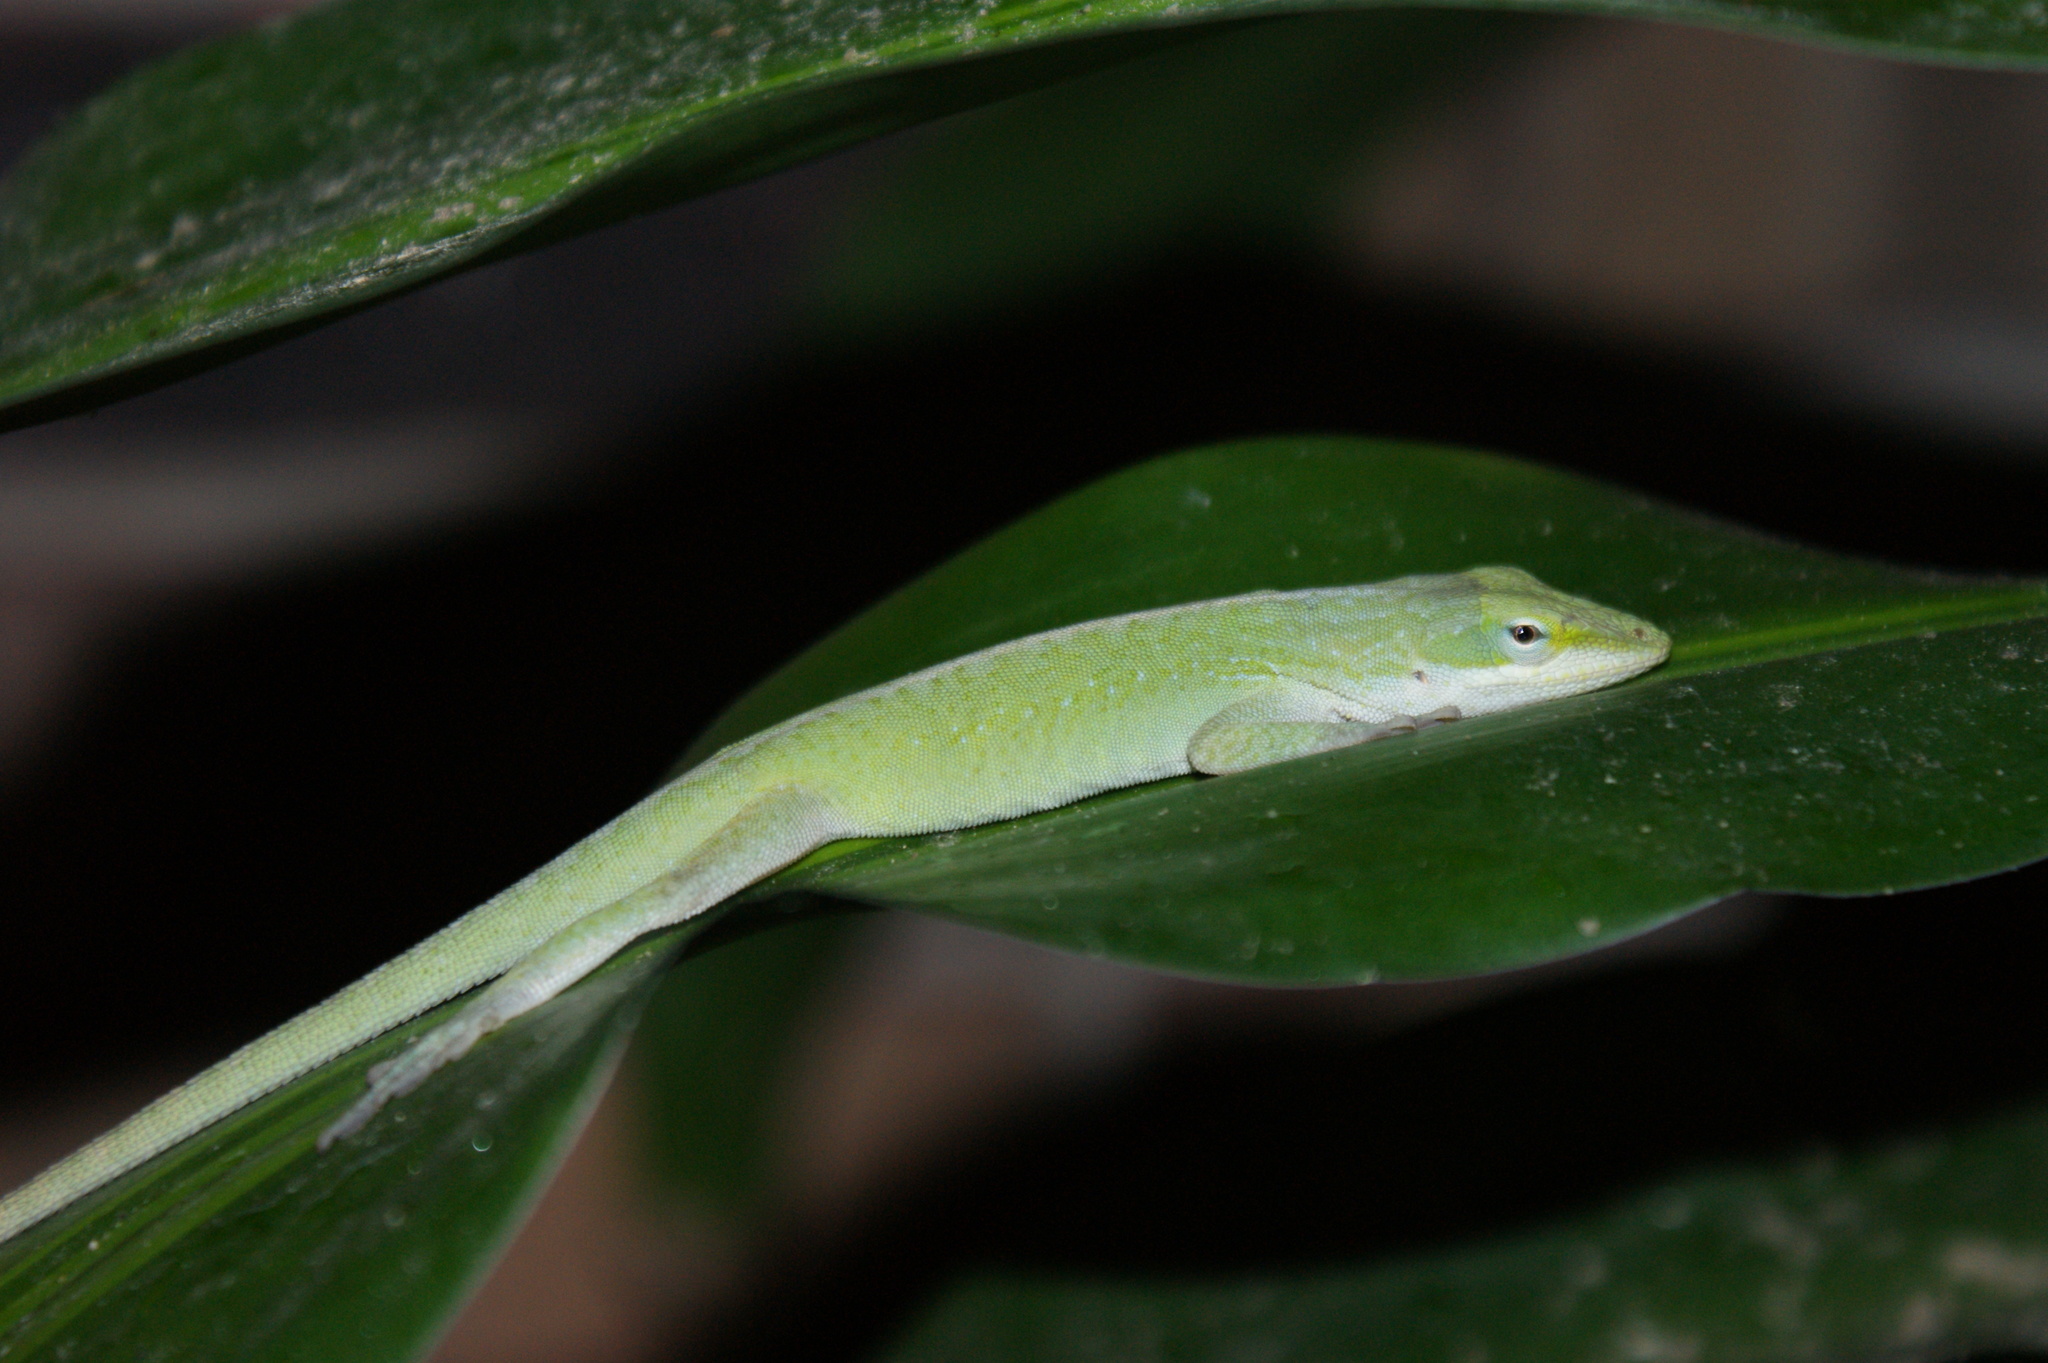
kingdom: Animalia
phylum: Chordata
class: Squamata
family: Dactyloidae
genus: Anolis
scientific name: Anolis carolinensis
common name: Green anole
